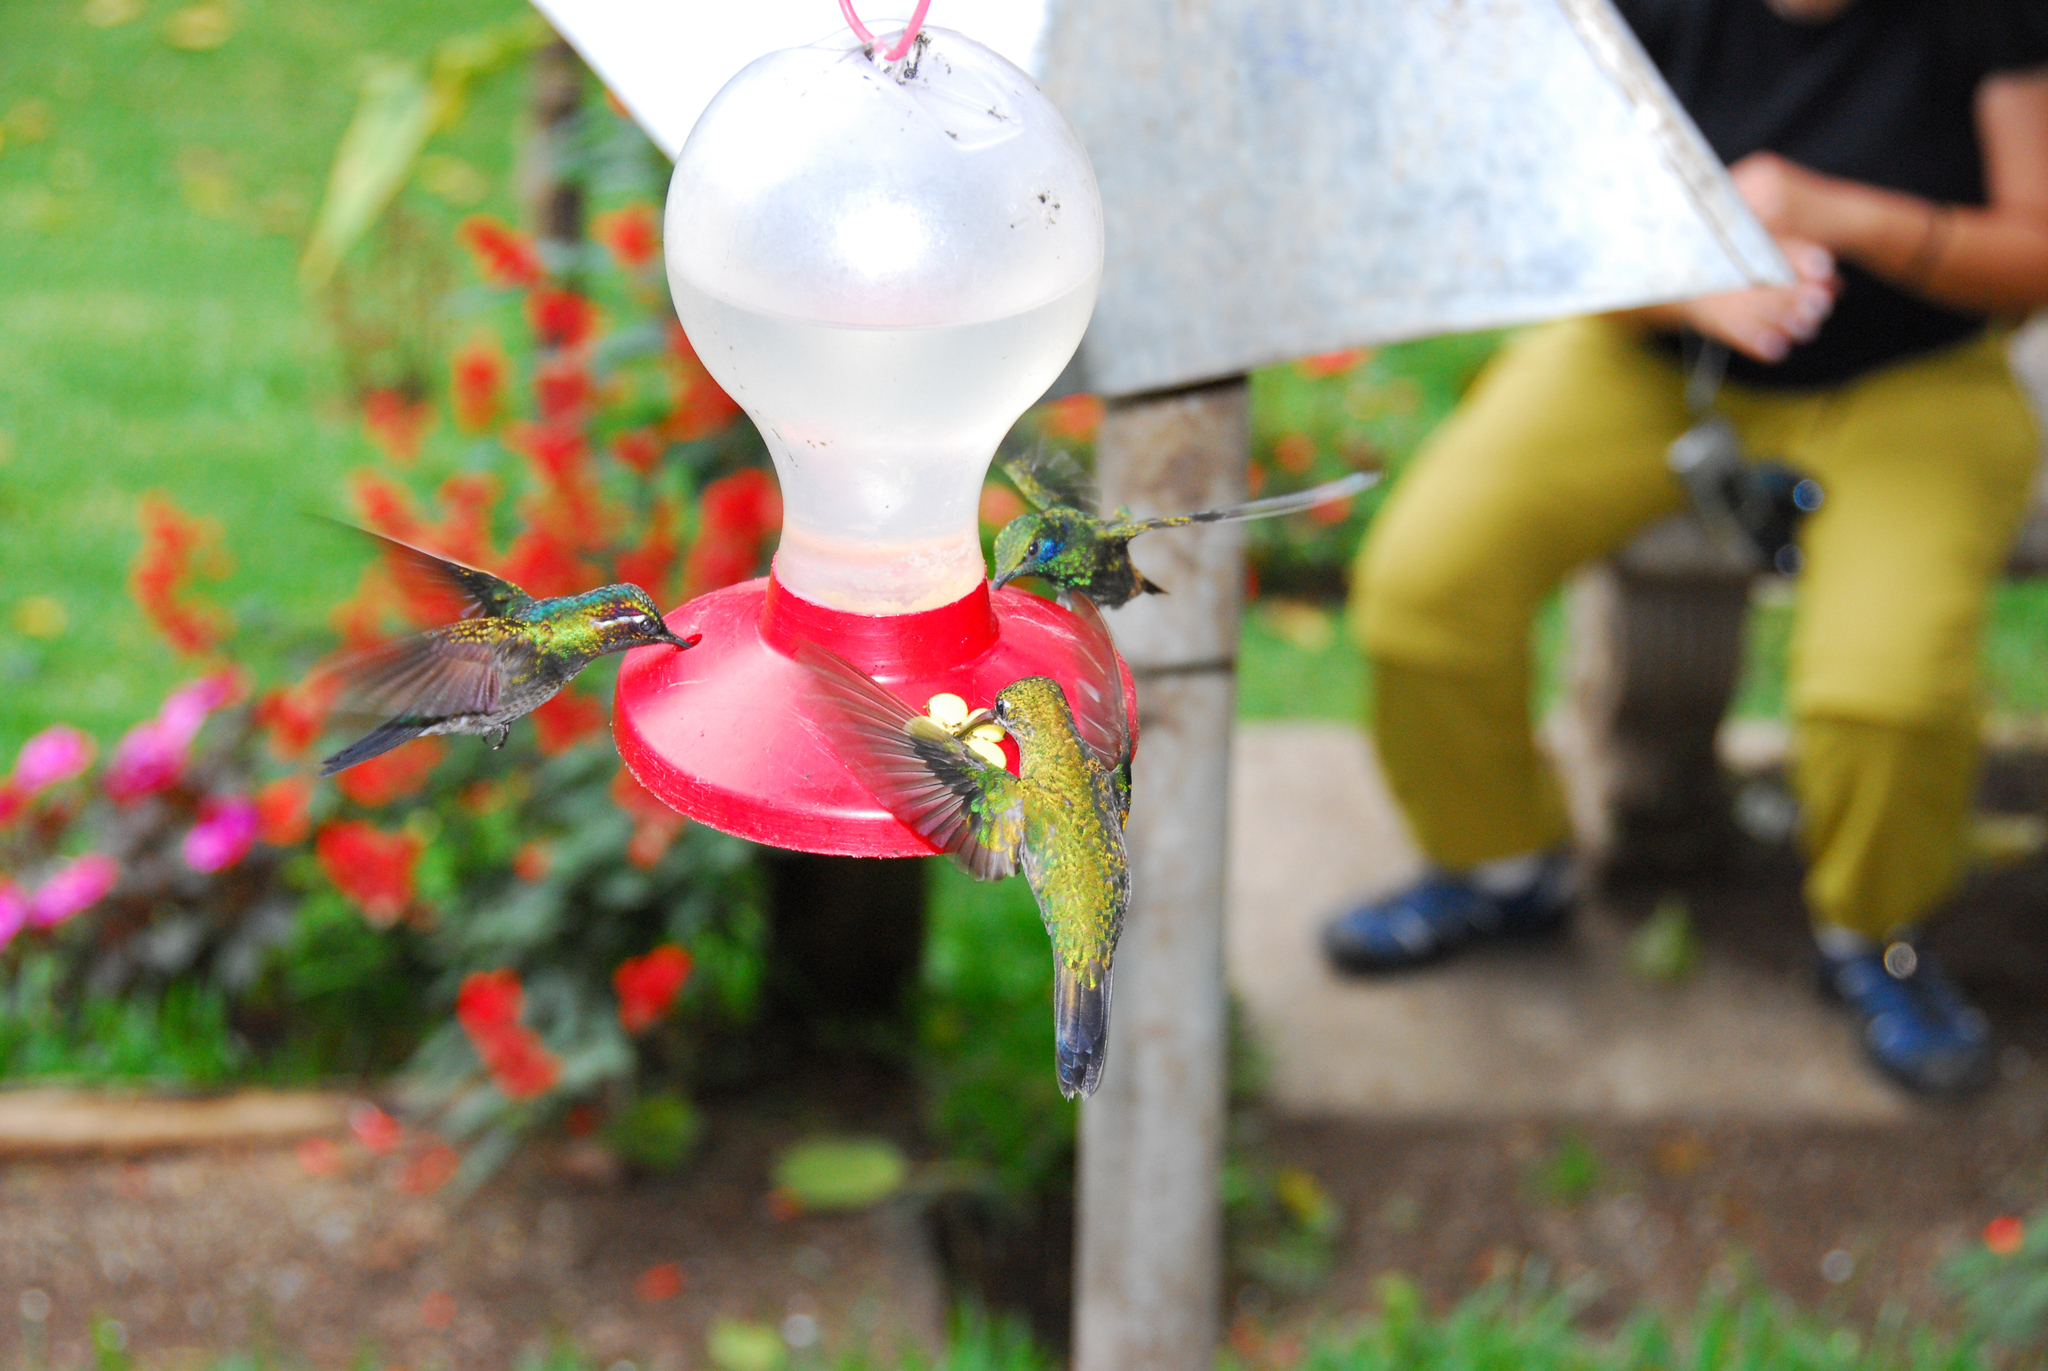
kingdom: Animalia
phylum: Chordata
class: Aves
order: Apodiformes
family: Trochilidae
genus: Lampornis
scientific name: Lampornis calolaemus
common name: Purple-throated mountain-gem
